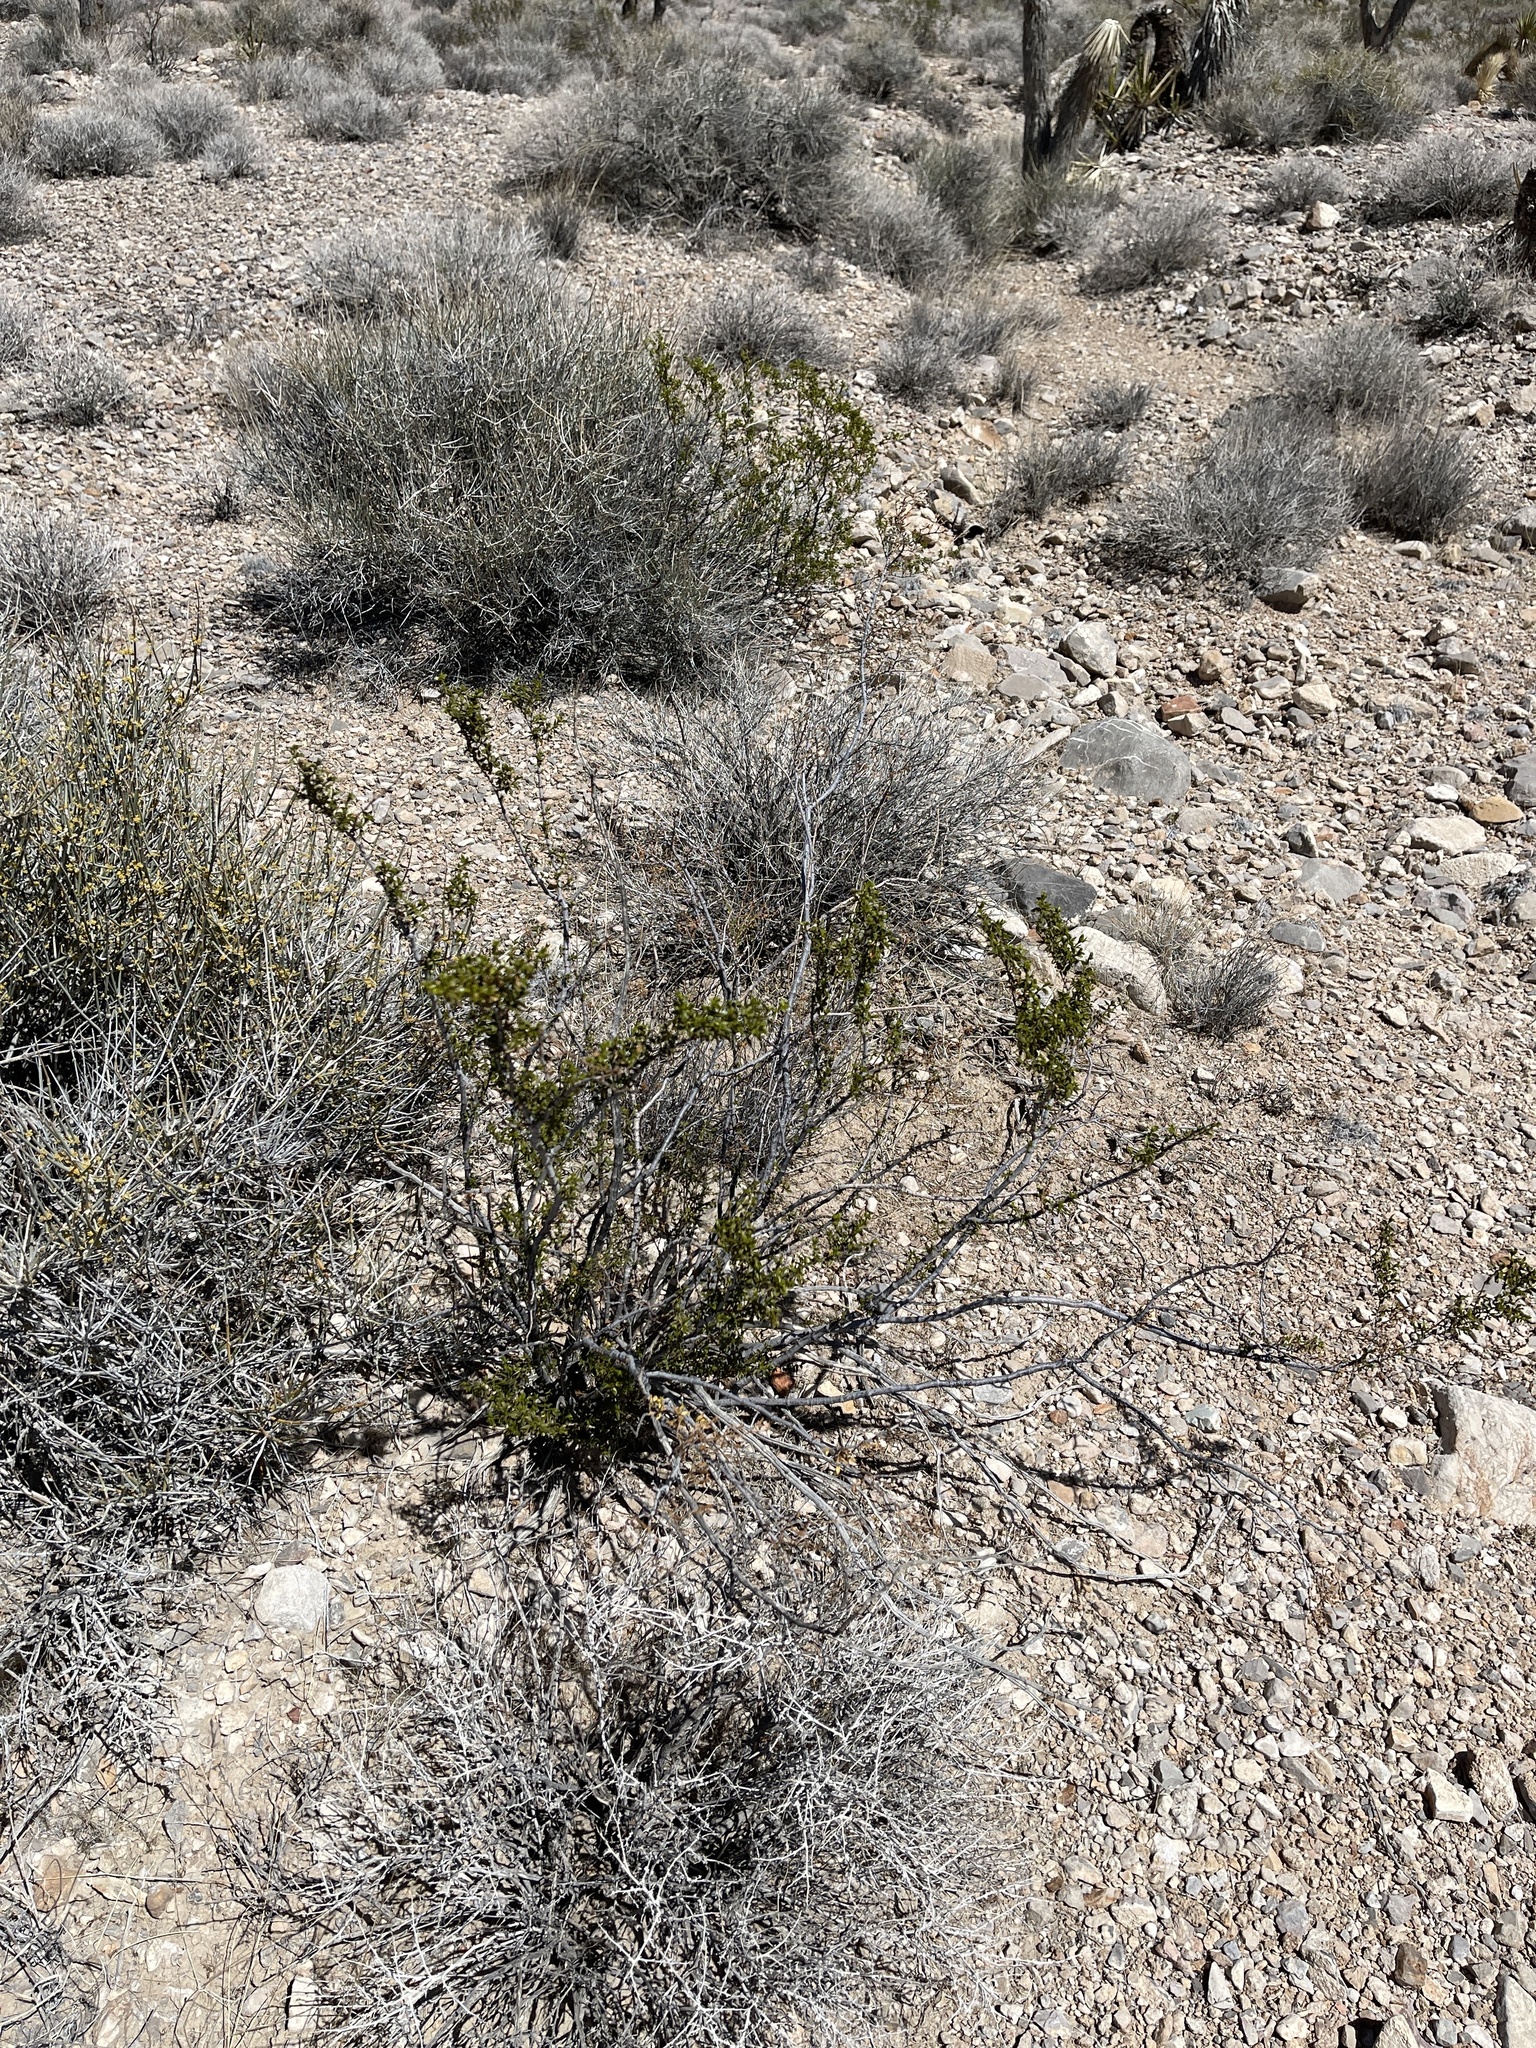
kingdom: Plantae
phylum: Tracheophyta
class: Magnoliopsida
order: Zygophyllales
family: Zygophyllaceae
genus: Larrea
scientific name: Larrea tridentata
